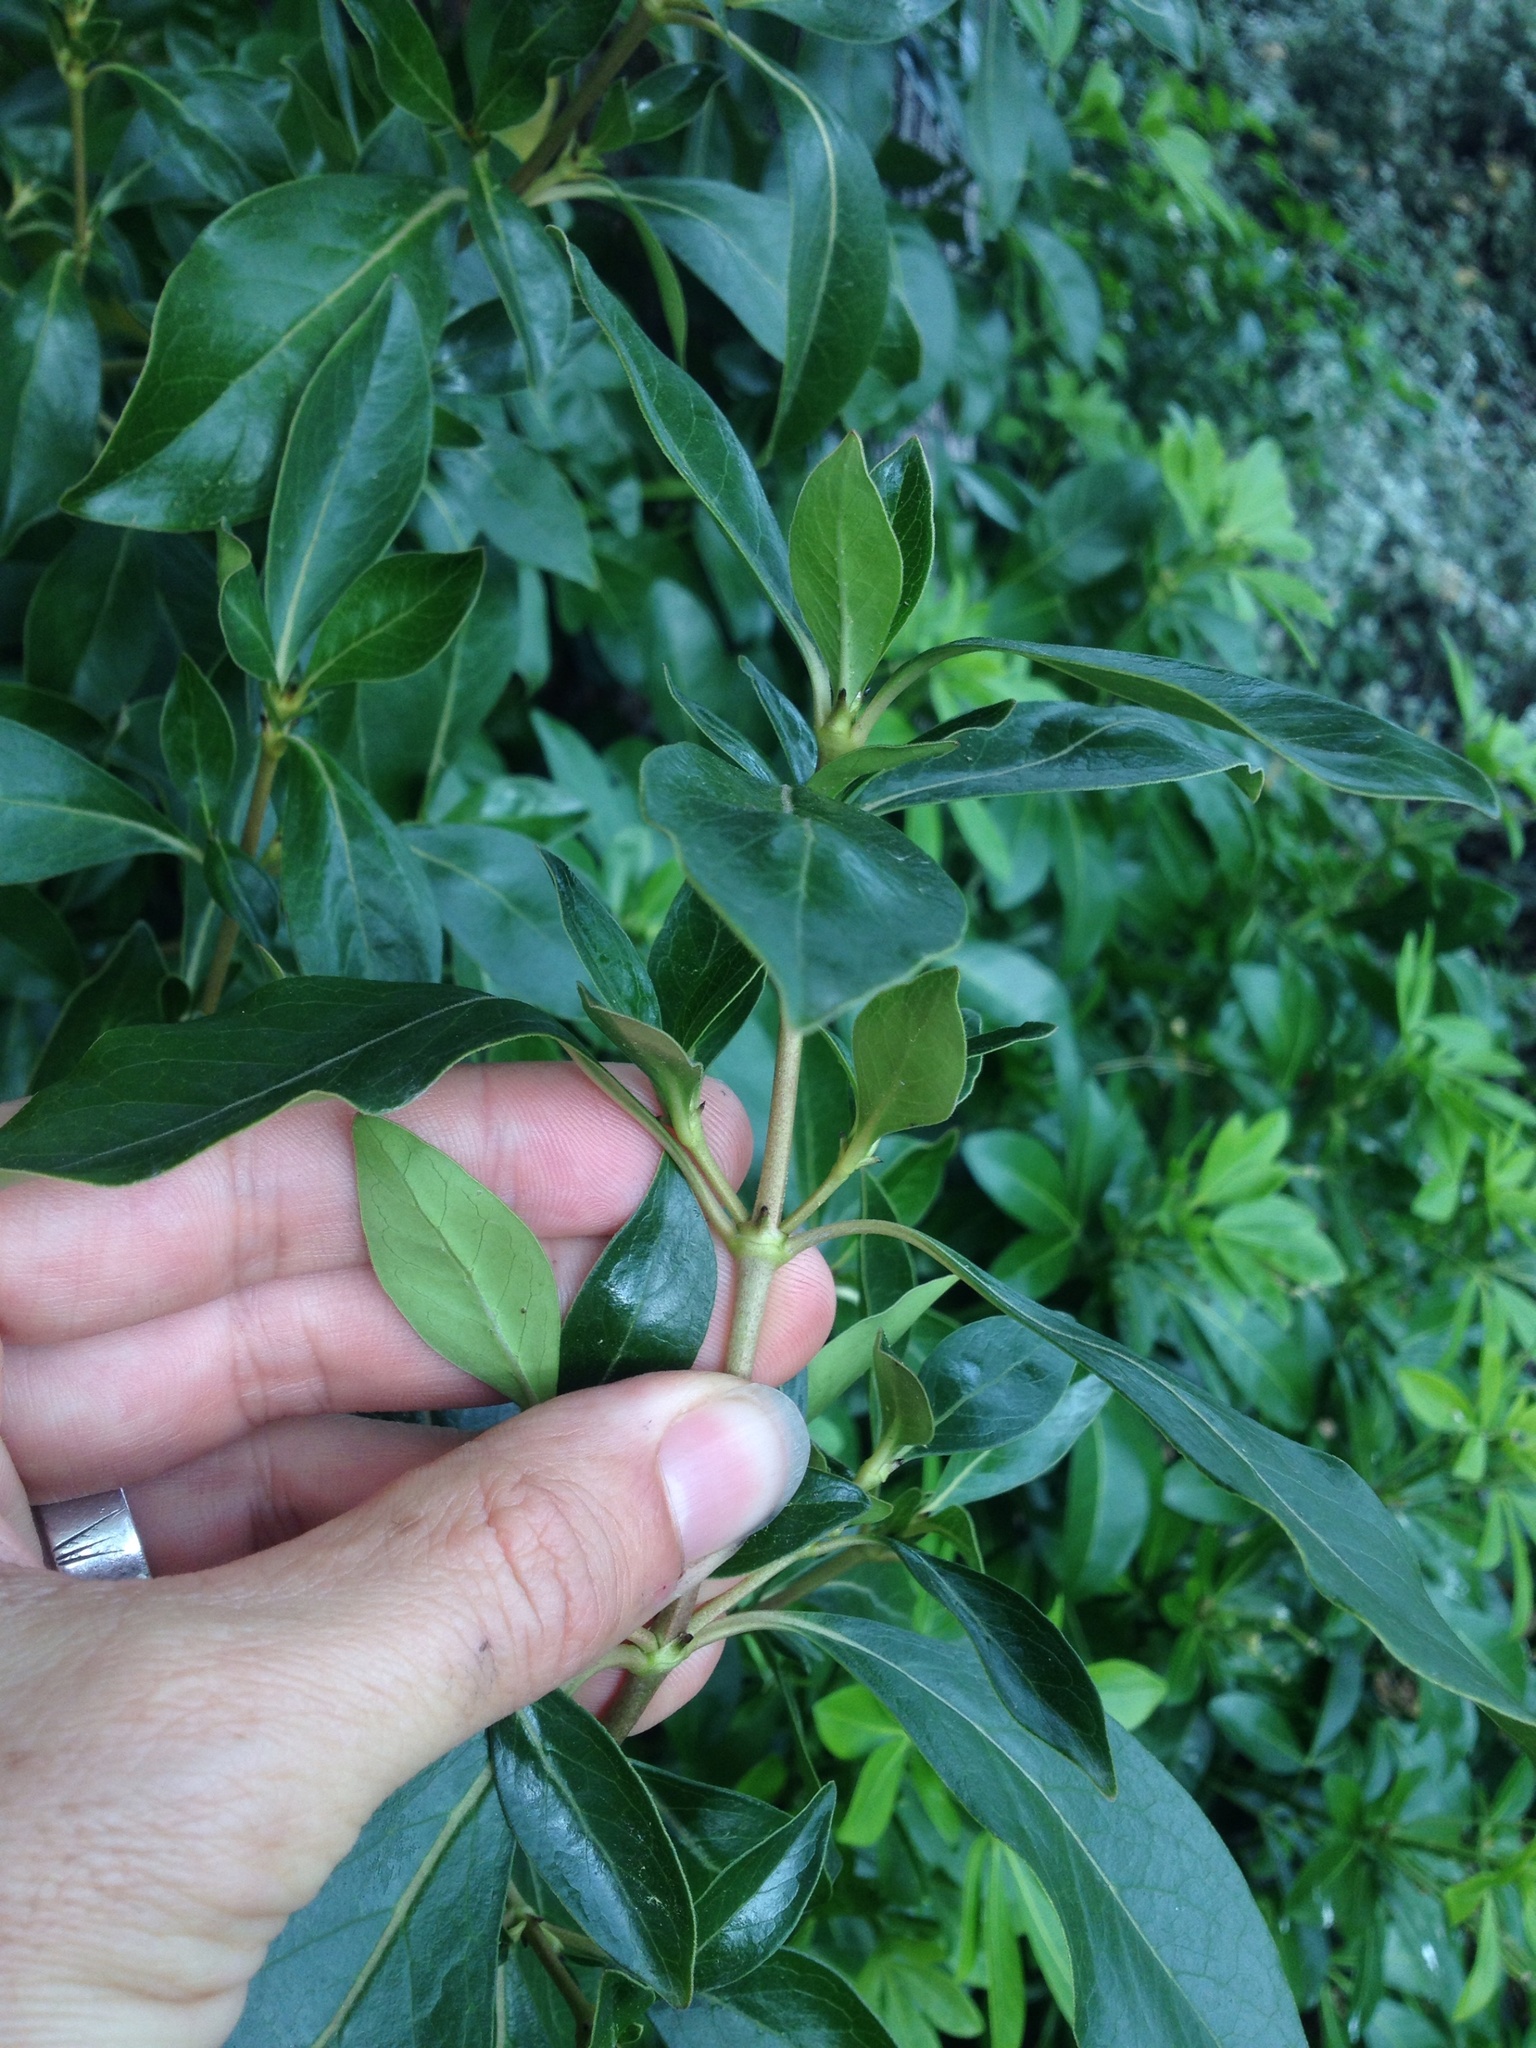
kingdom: Plantae
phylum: Tracheophyta
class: Magnoliopsida
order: Gentianales
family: Rubiaceae
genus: Coprosma
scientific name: Coprosma robusta
